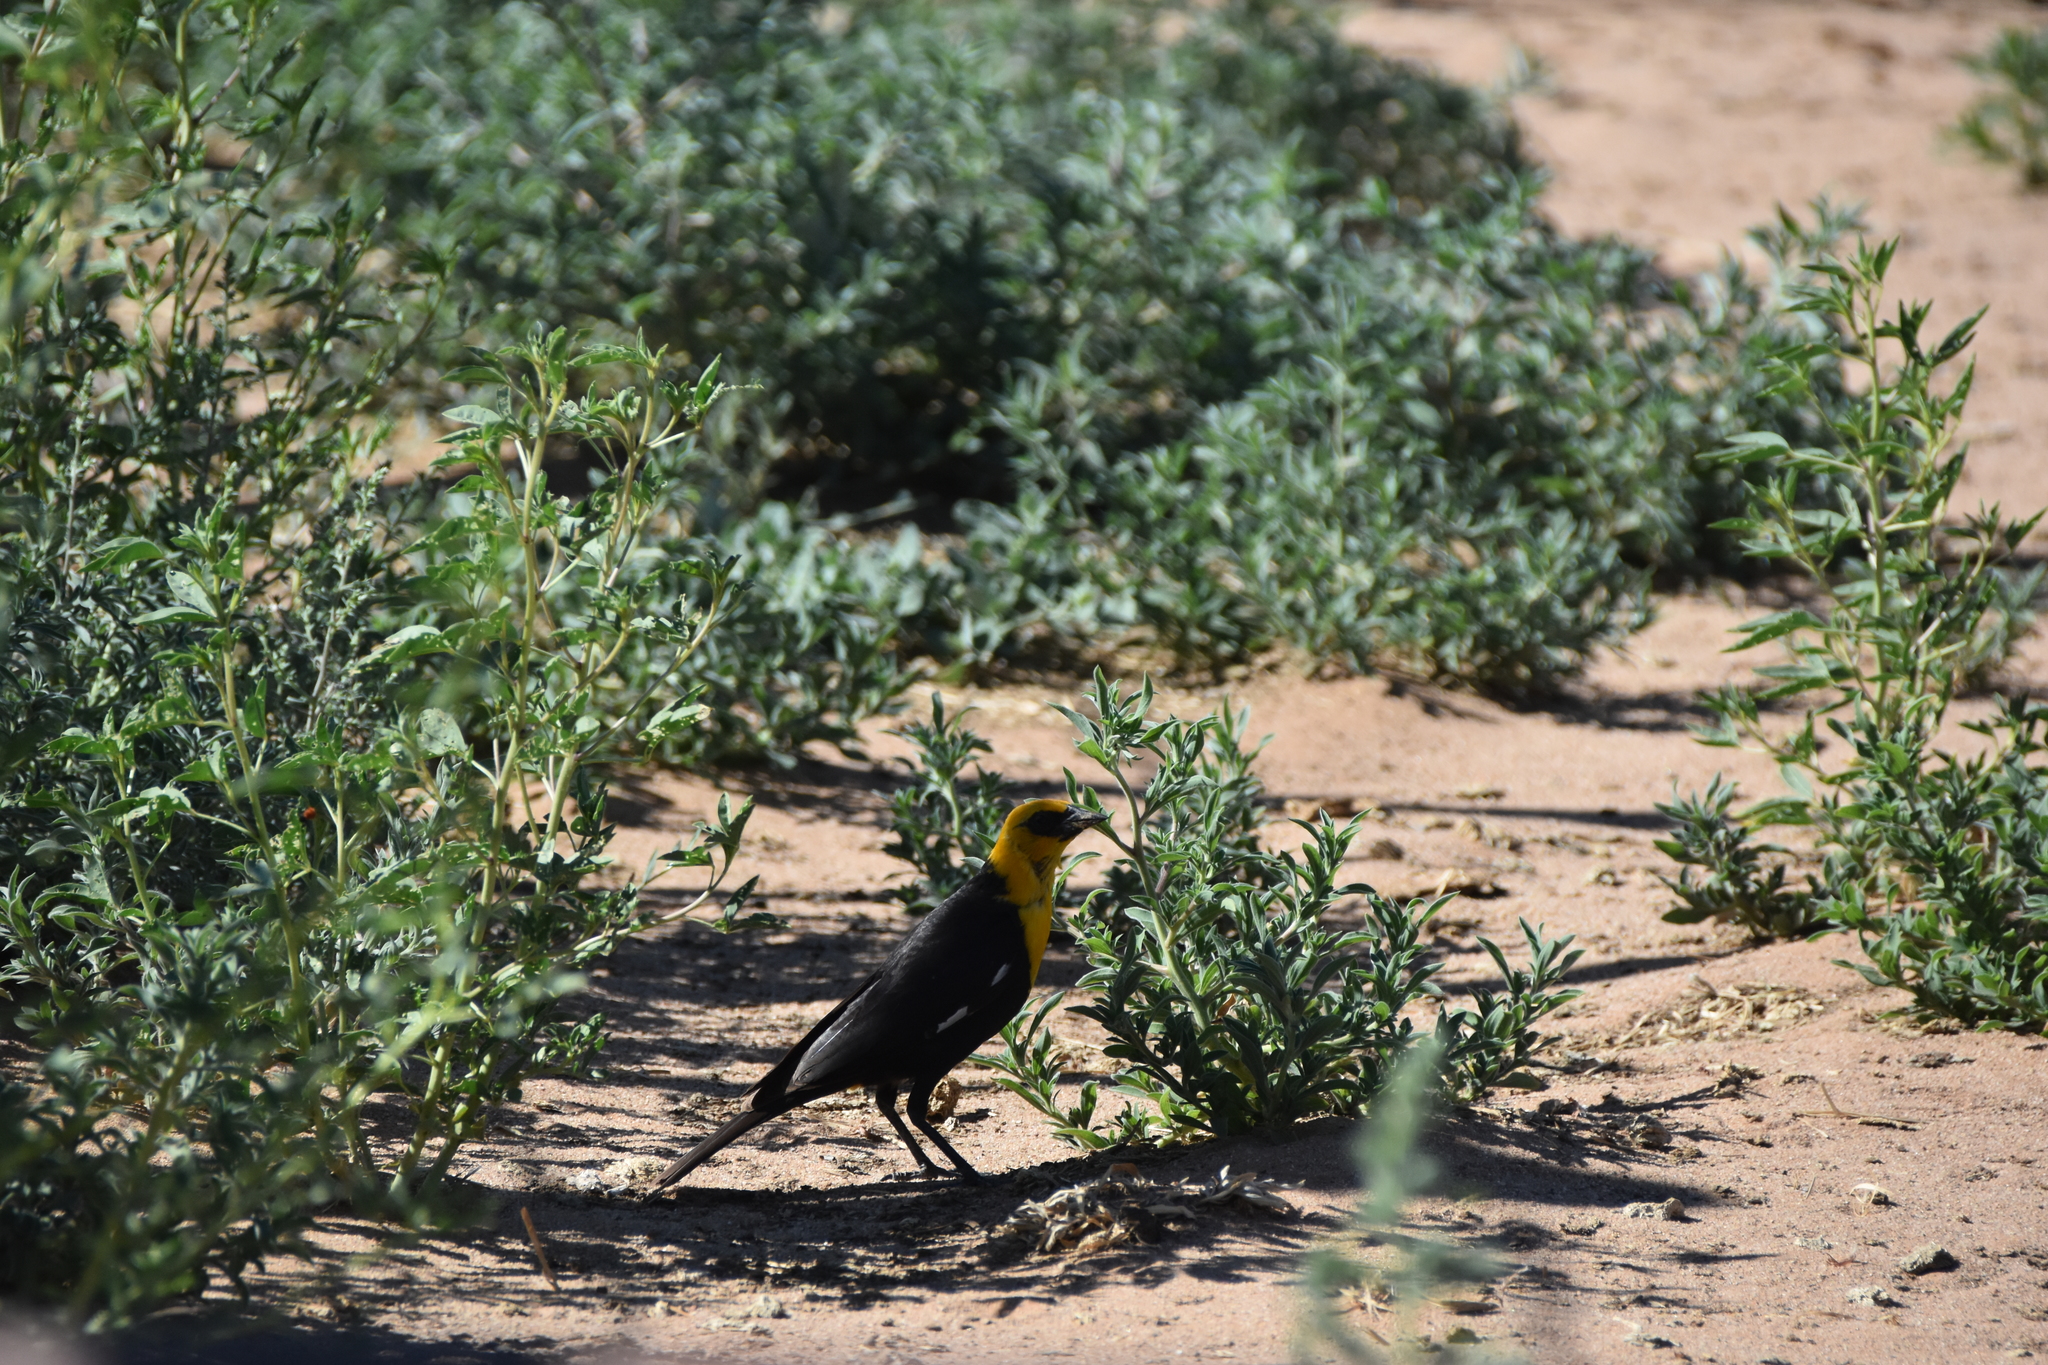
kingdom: Animalia
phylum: Chordata
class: Aves
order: Passeriformes
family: Icteridae
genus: Xanthocephalus
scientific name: Xanthocephalus xanthocephalus
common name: Yellow-headed blackbird
